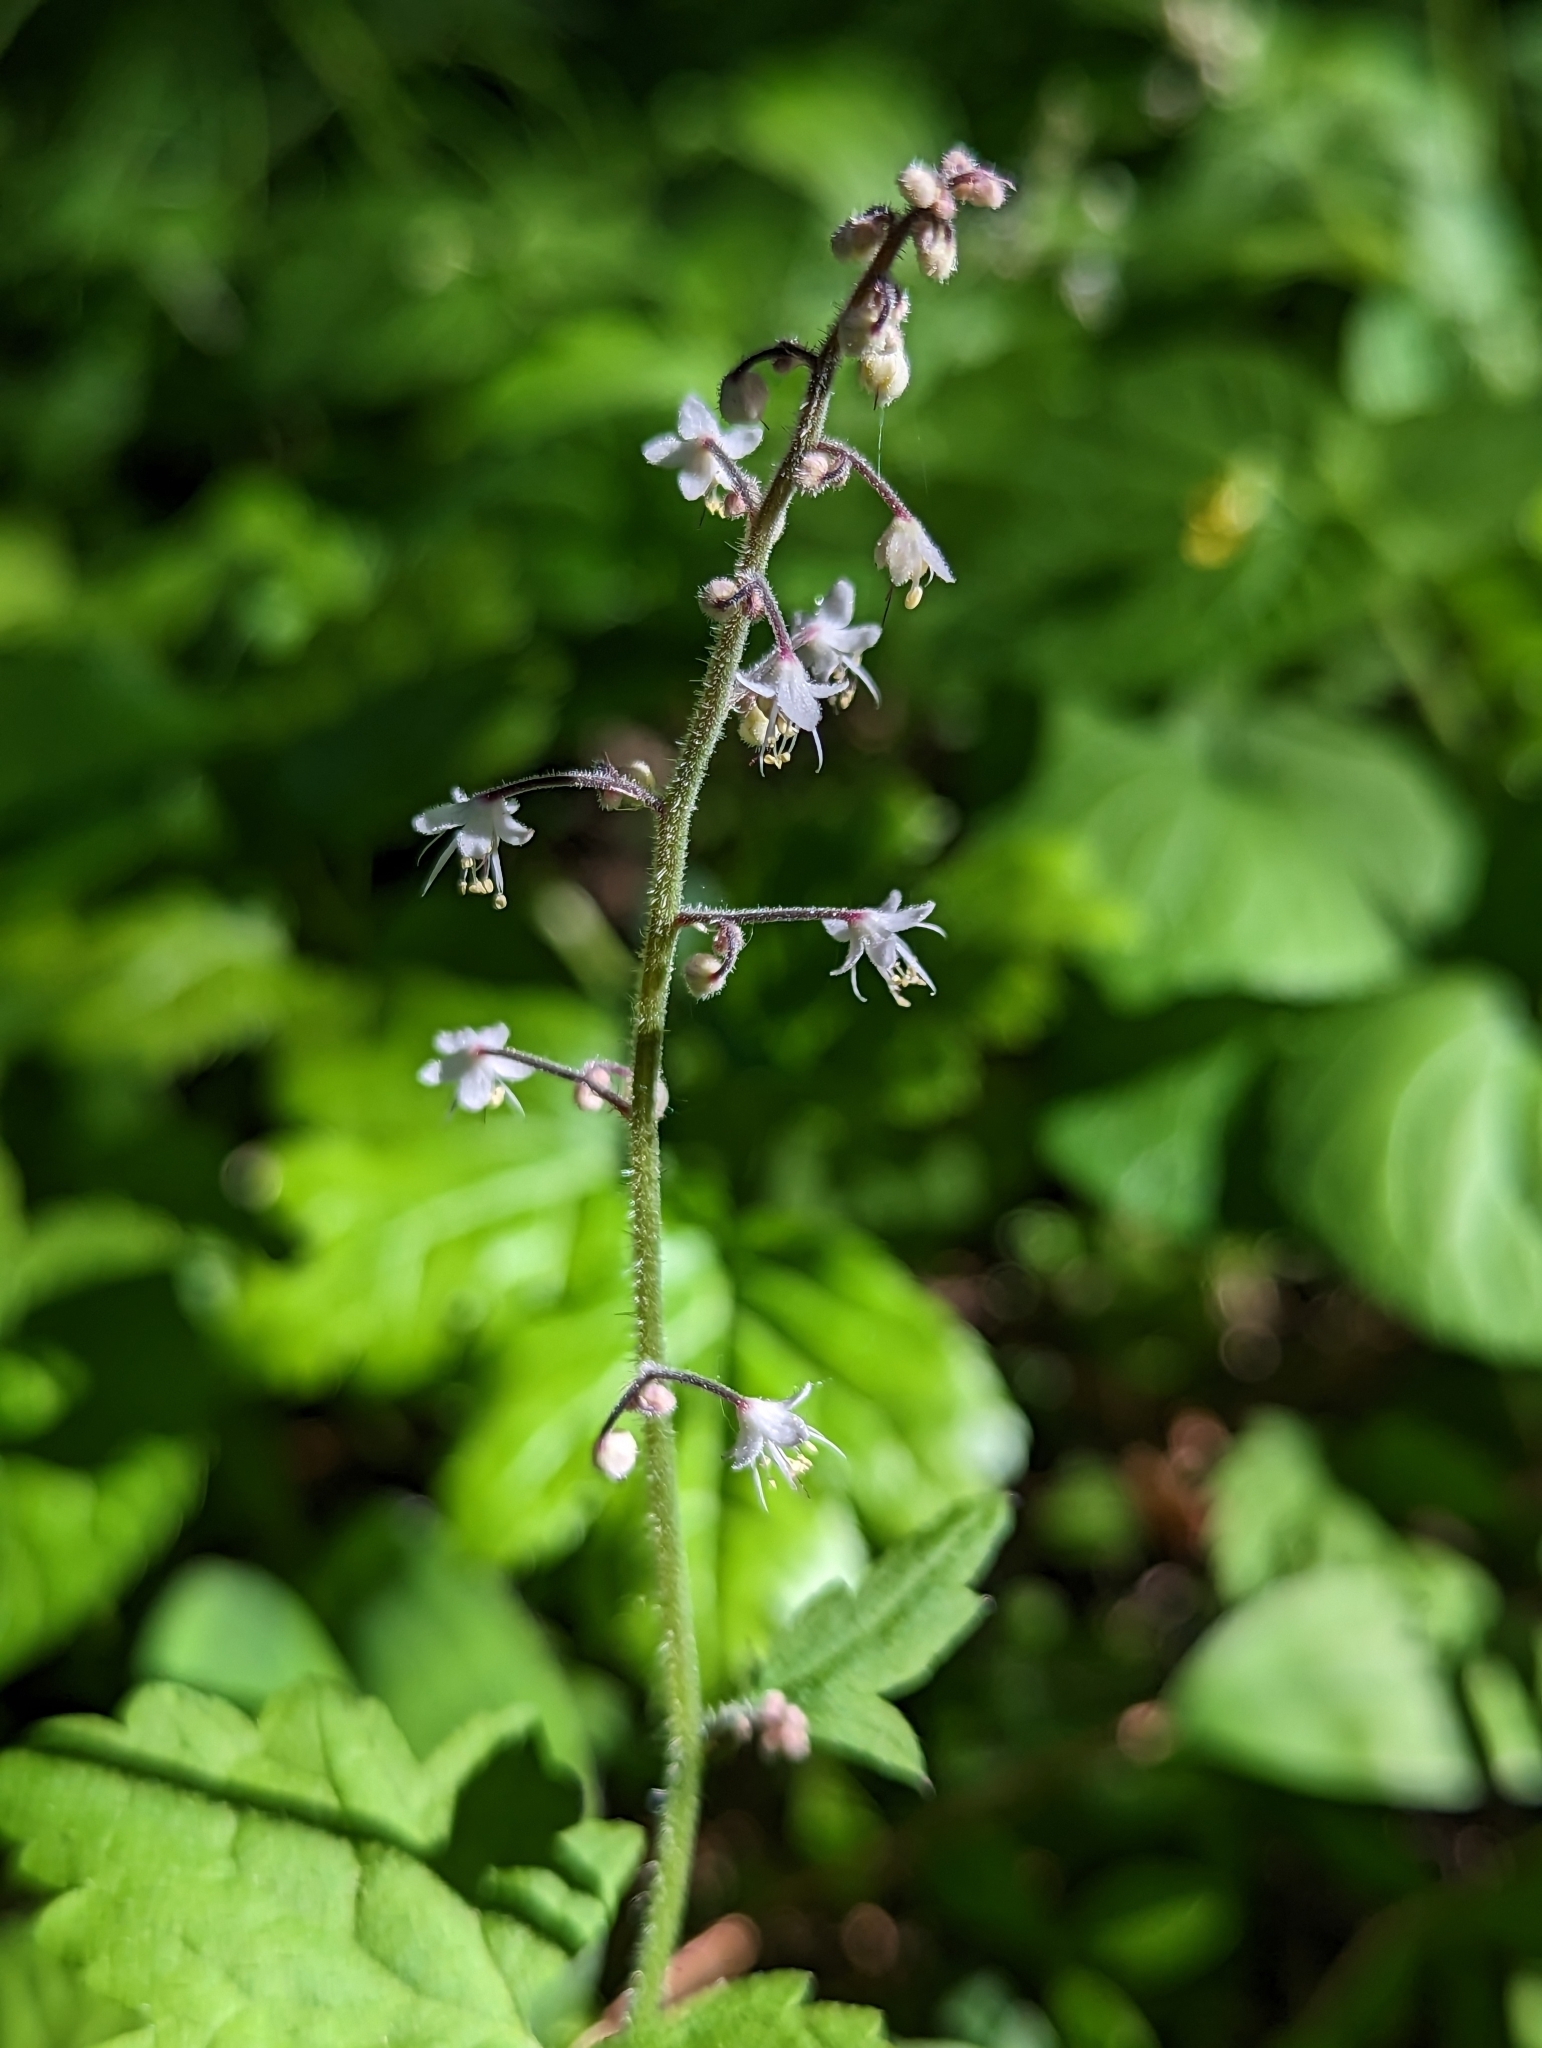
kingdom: Plantae
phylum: Tracheophyta
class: Magnoliopsida
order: Saxifragales
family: Saxifragaceae
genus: Tiarella
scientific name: Tiarella trifoliata
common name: Sugar-scoop
